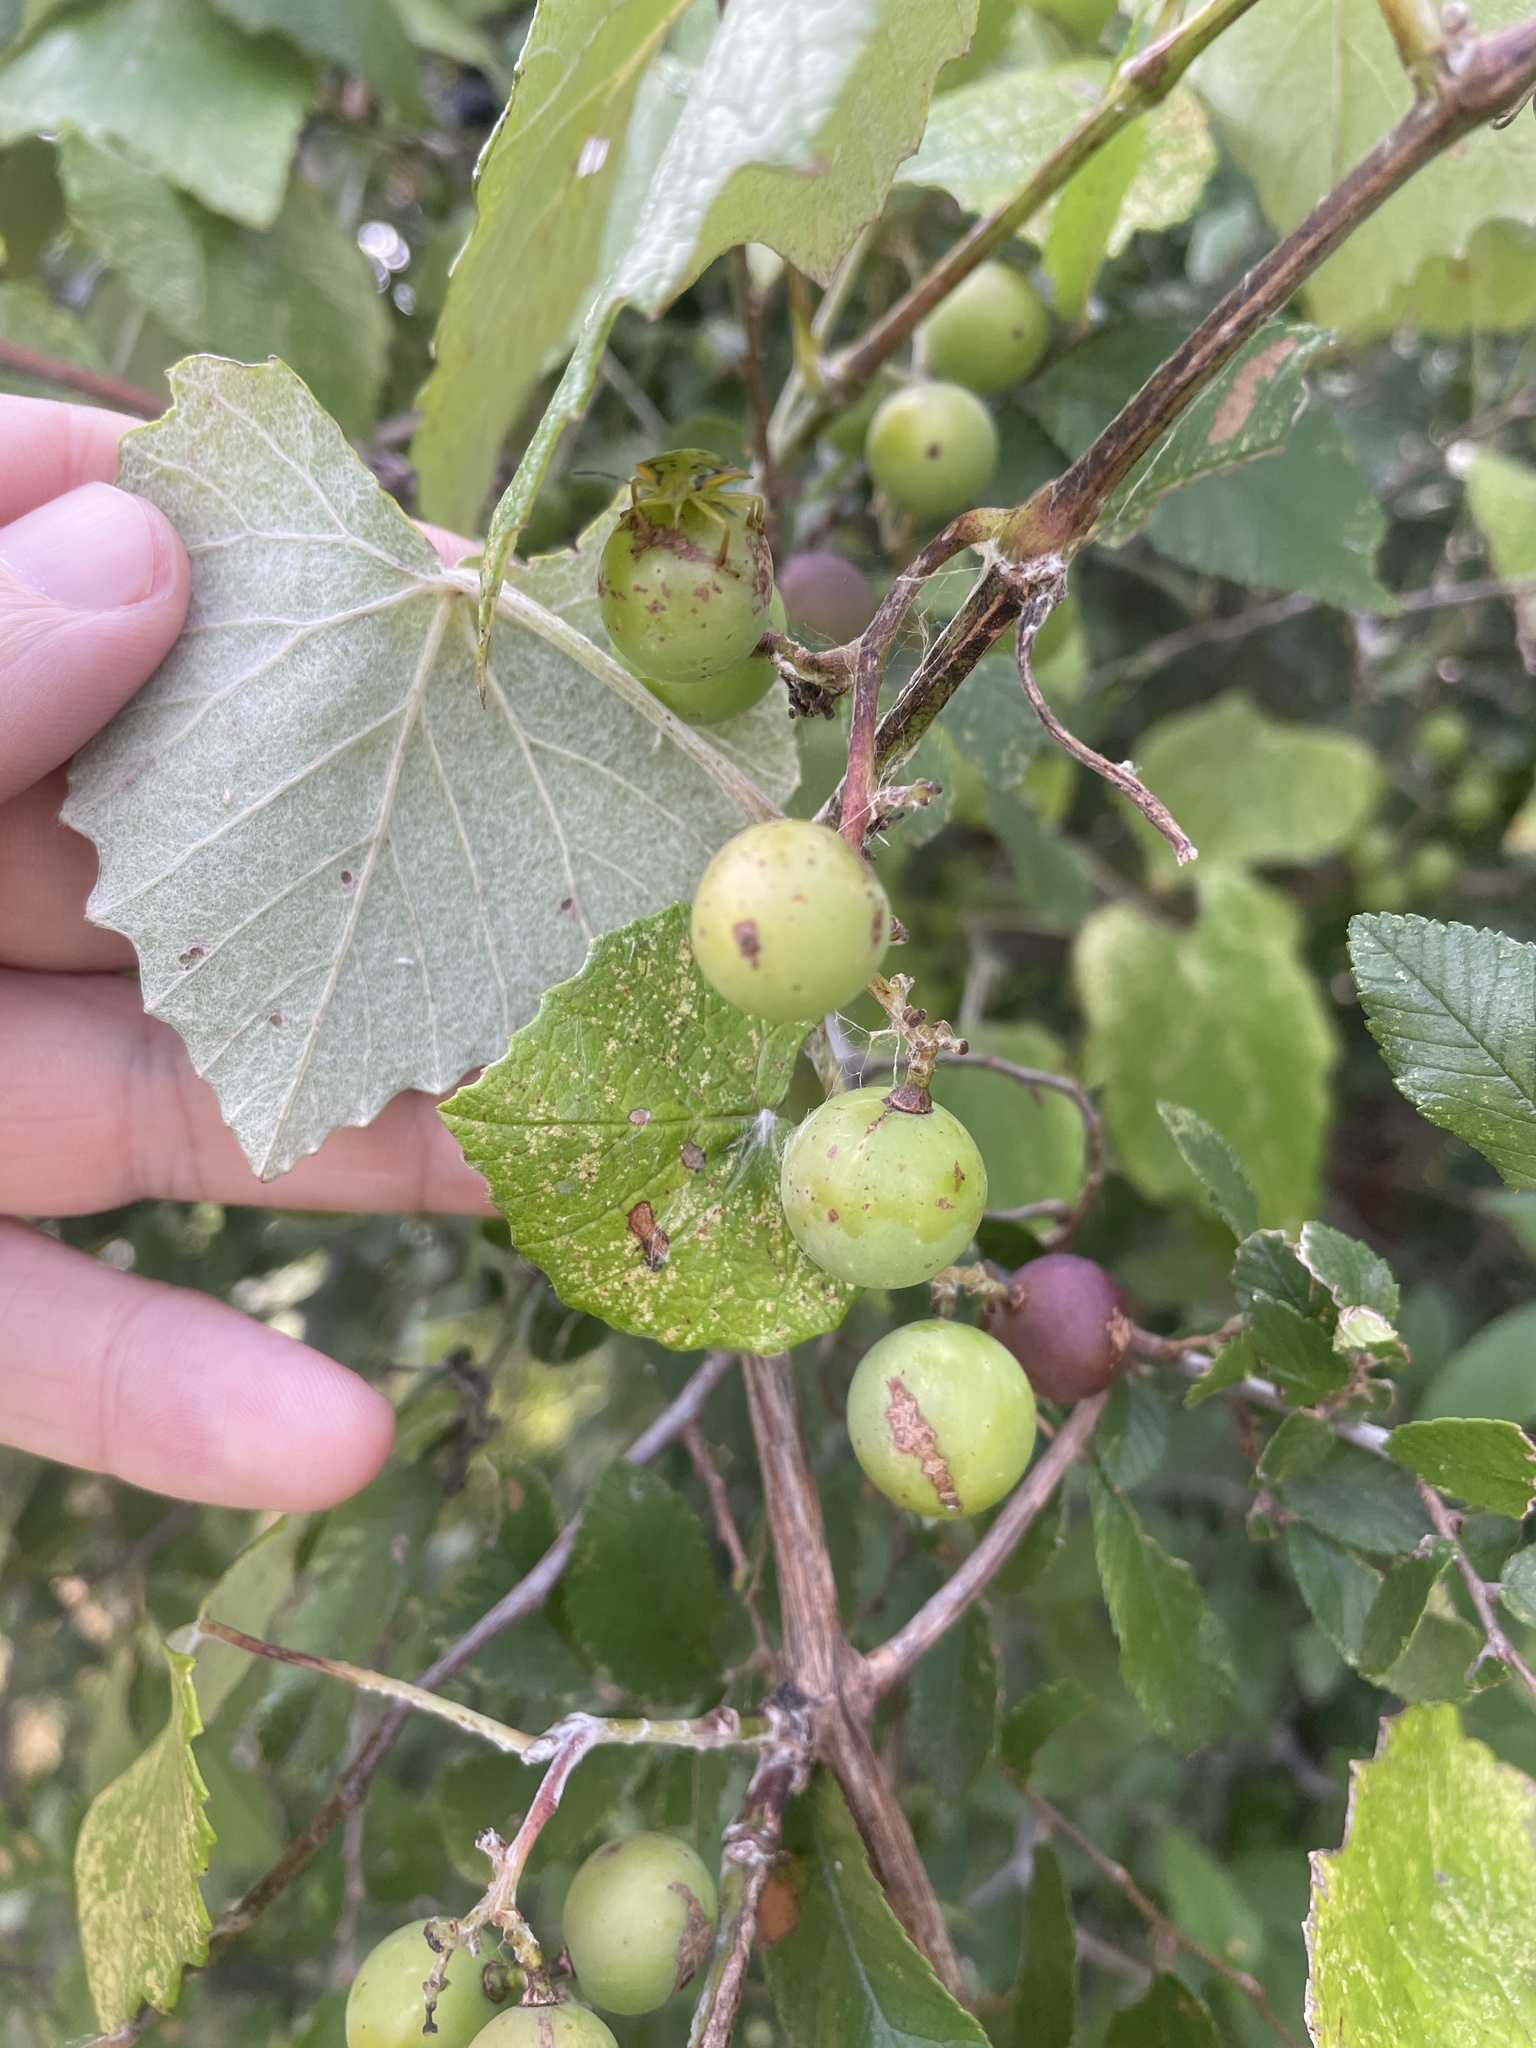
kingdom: Plantae
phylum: Tracheophyta
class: Magnoliopsida
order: Vitales
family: Vitaceae
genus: Vitis
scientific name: Vitis mustangensis
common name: Mustang grape
